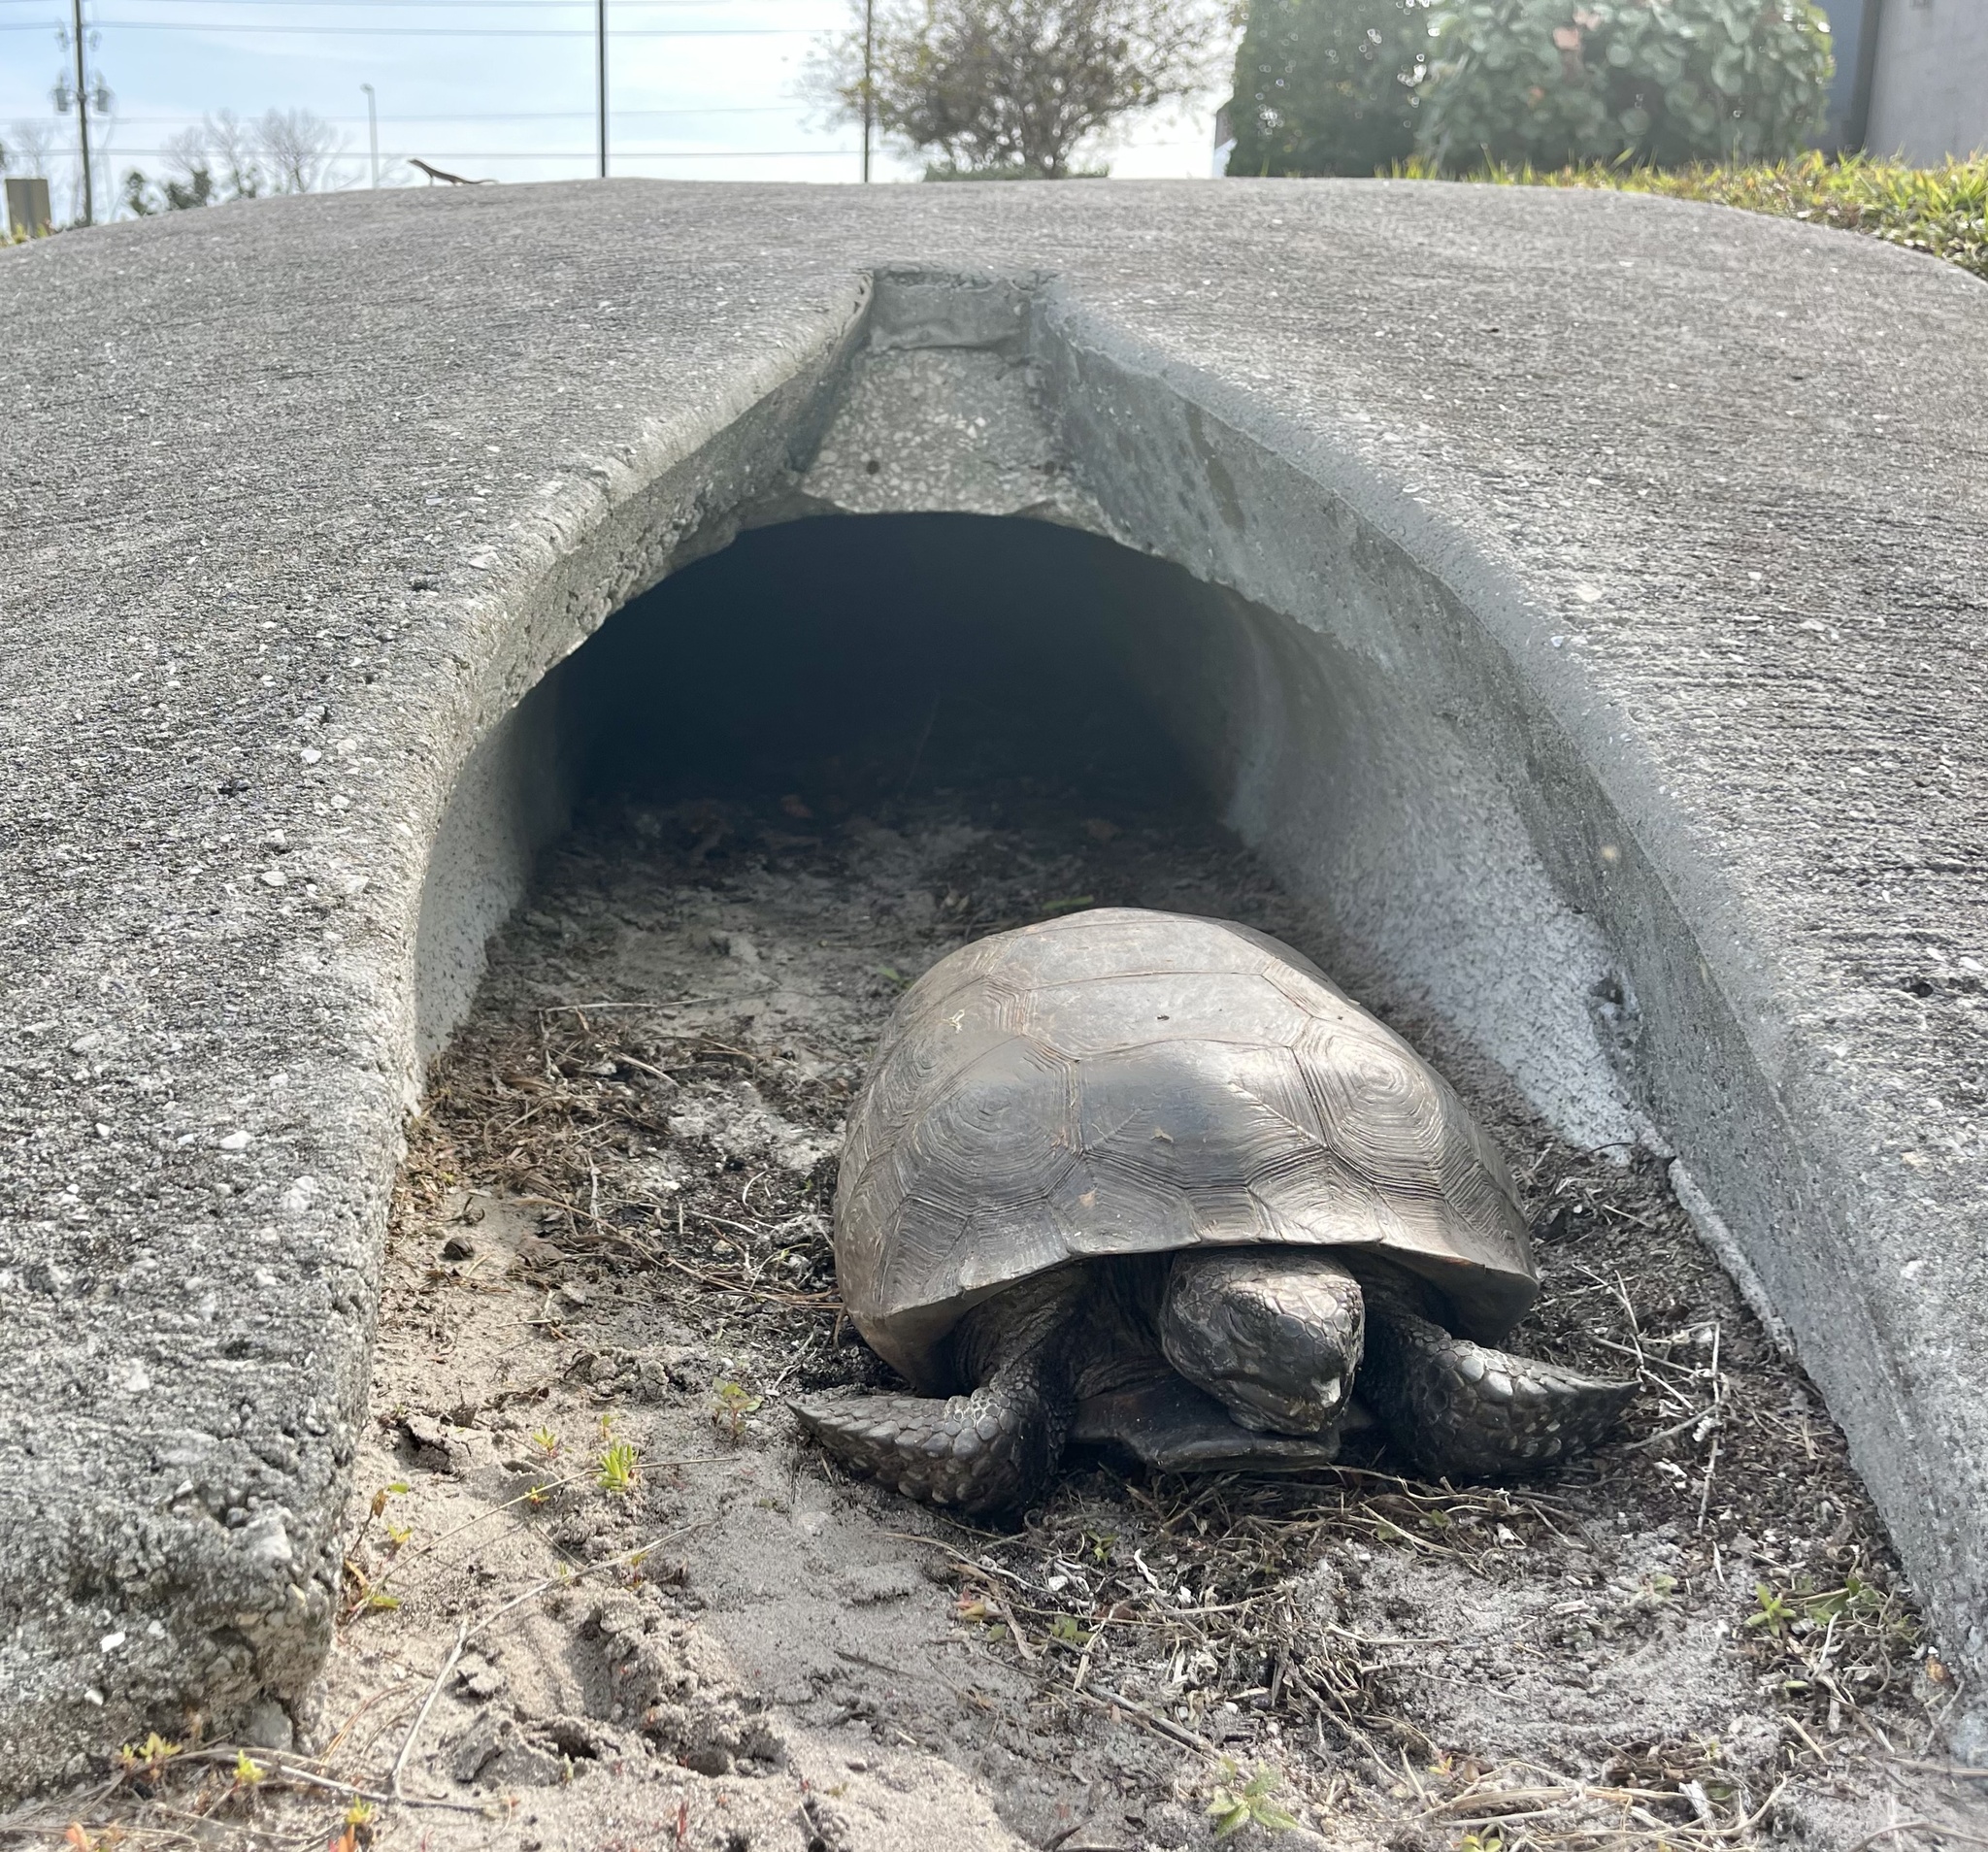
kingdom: Animalia
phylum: Chordata
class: Testudines
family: Testudinidae
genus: Gopherus
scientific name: Gopherus polyphemus
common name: Florida gopher tortoise
